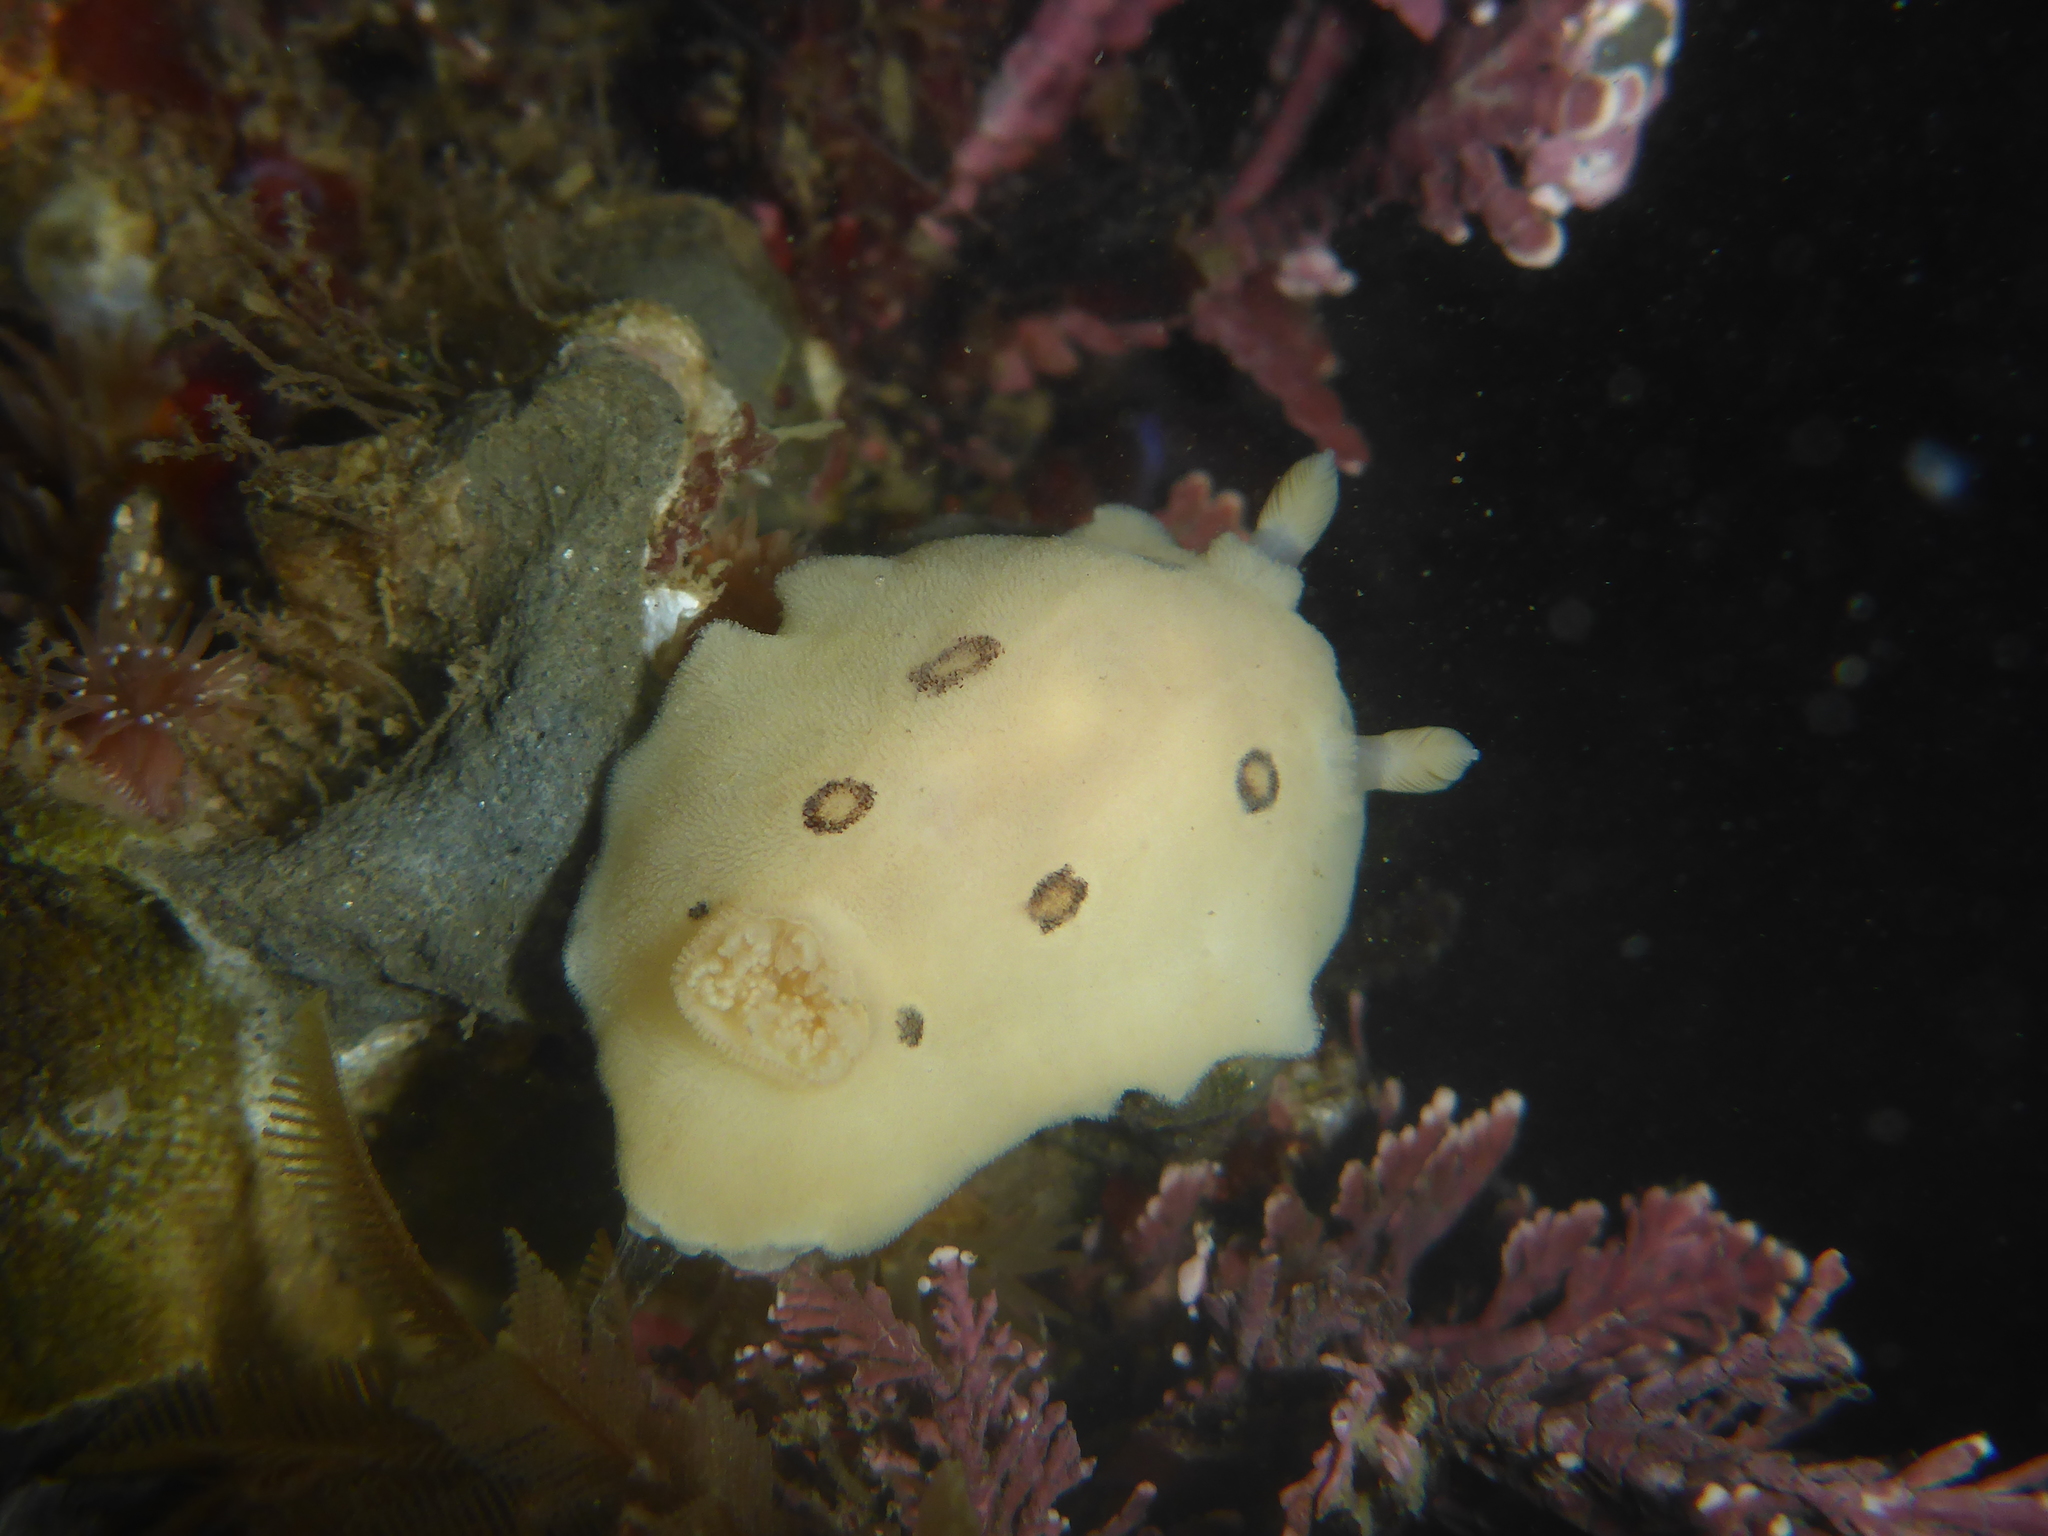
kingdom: Animalia
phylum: Mollusca
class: Gastropoda
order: Nudibranchia
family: Discodorididae
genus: Diaulula
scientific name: Diaulula sandiegensis
